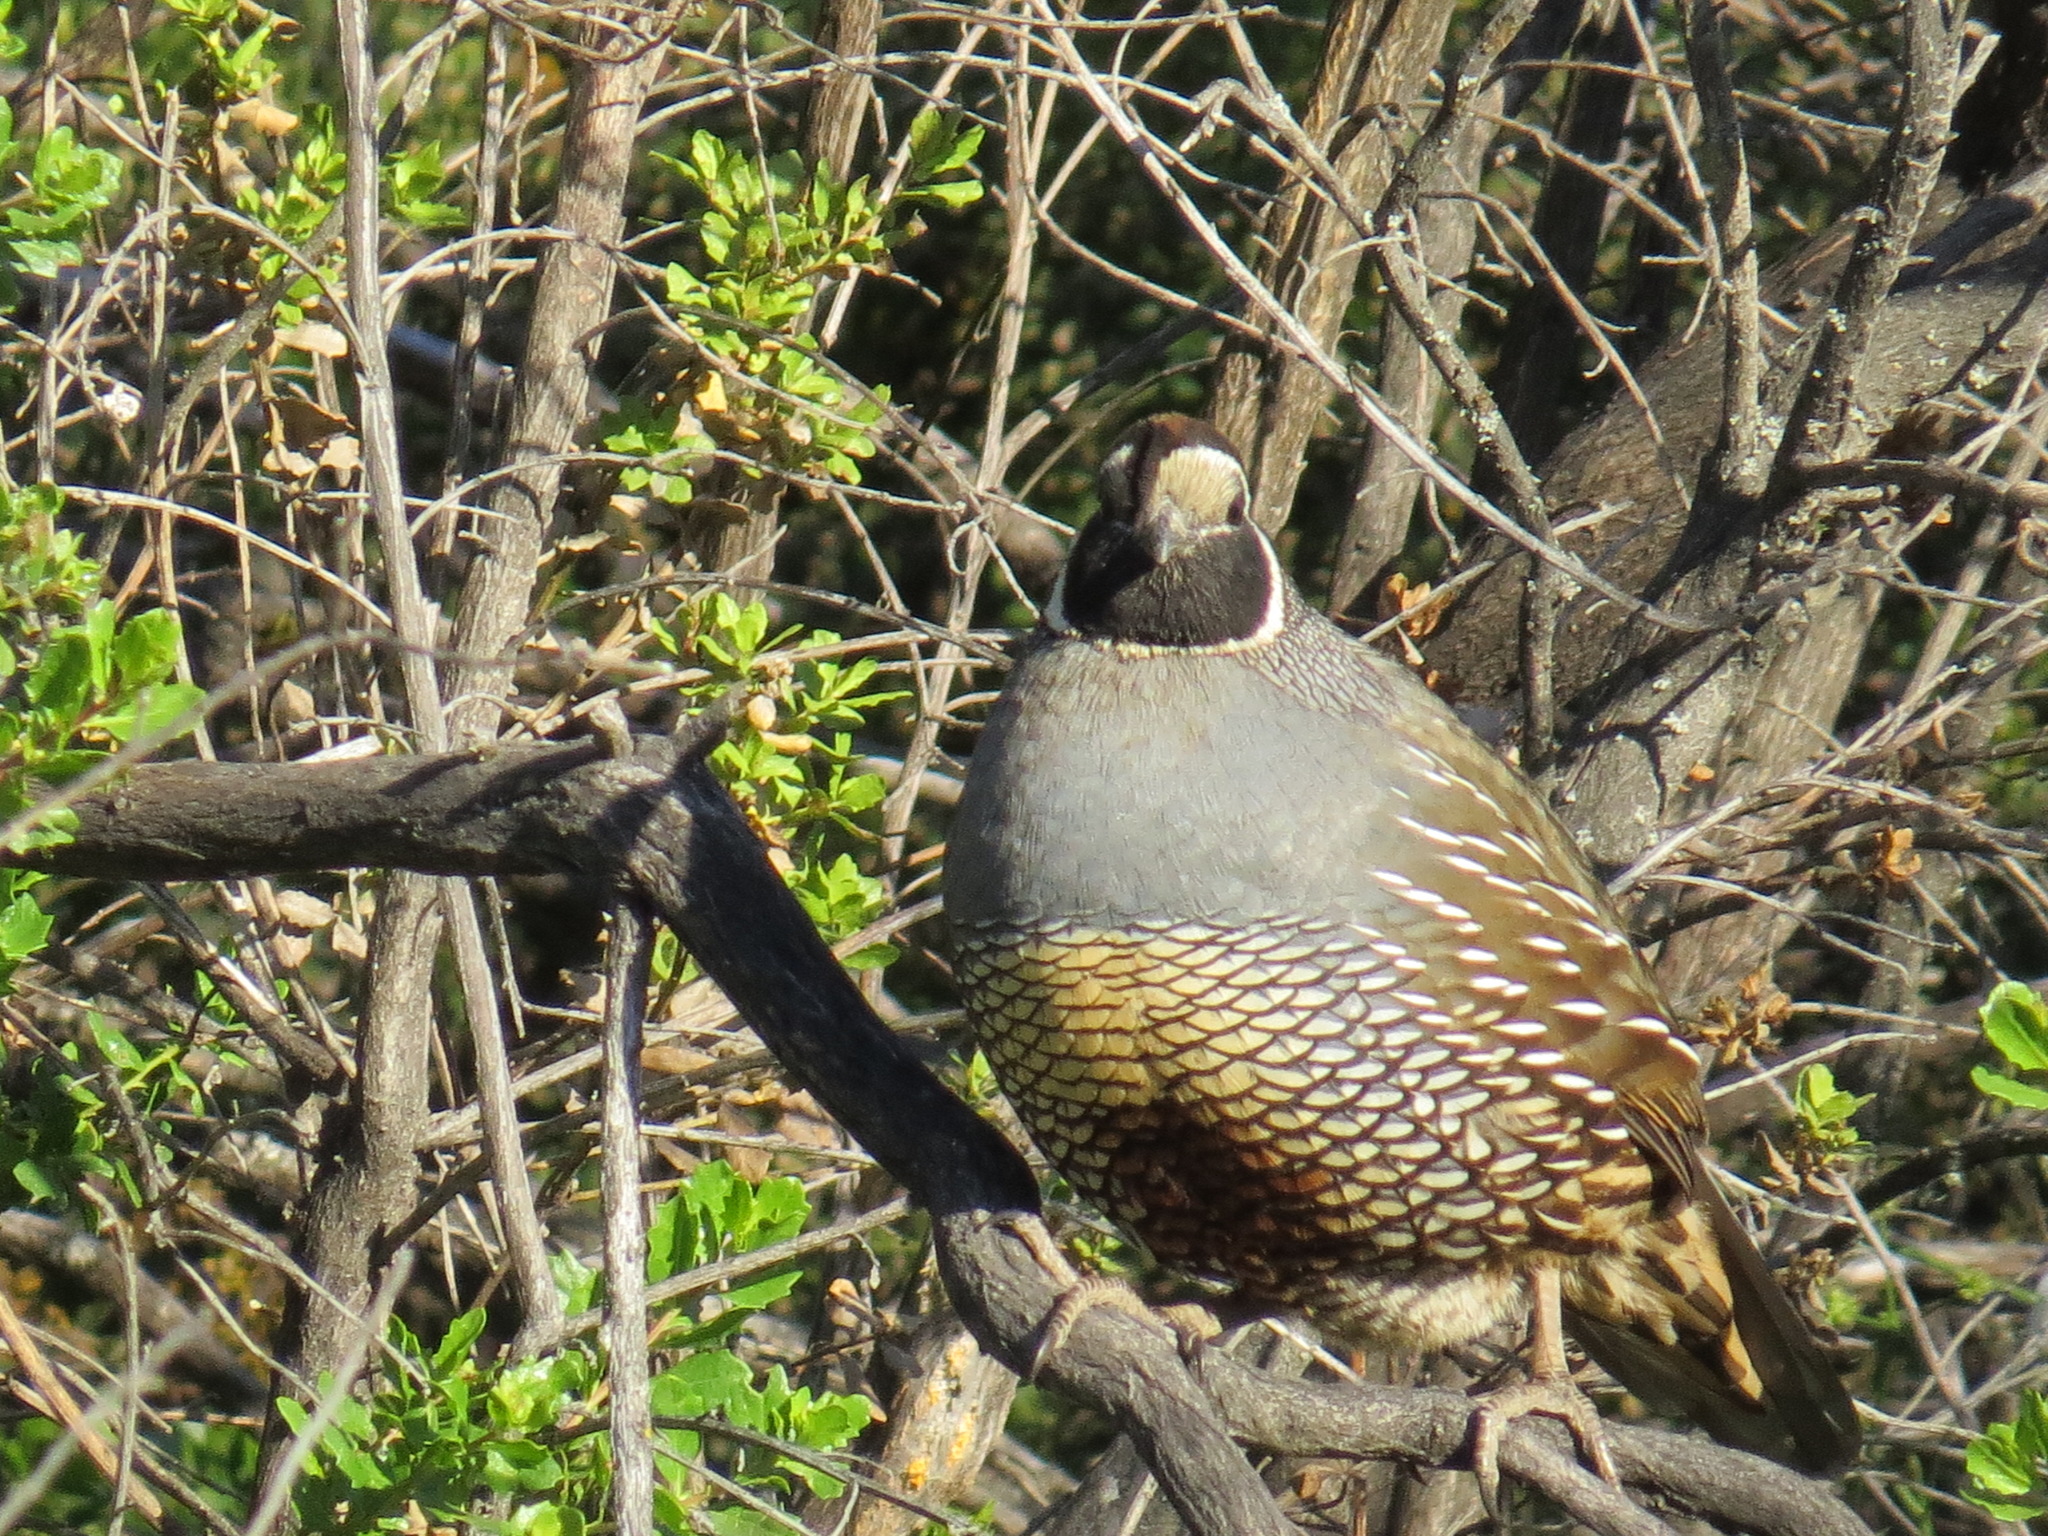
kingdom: Animalia
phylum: Chordata
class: Aves
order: Galliformes
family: Odontophoridae
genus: Callipepla
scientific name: Callipepla californica
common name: California quail
